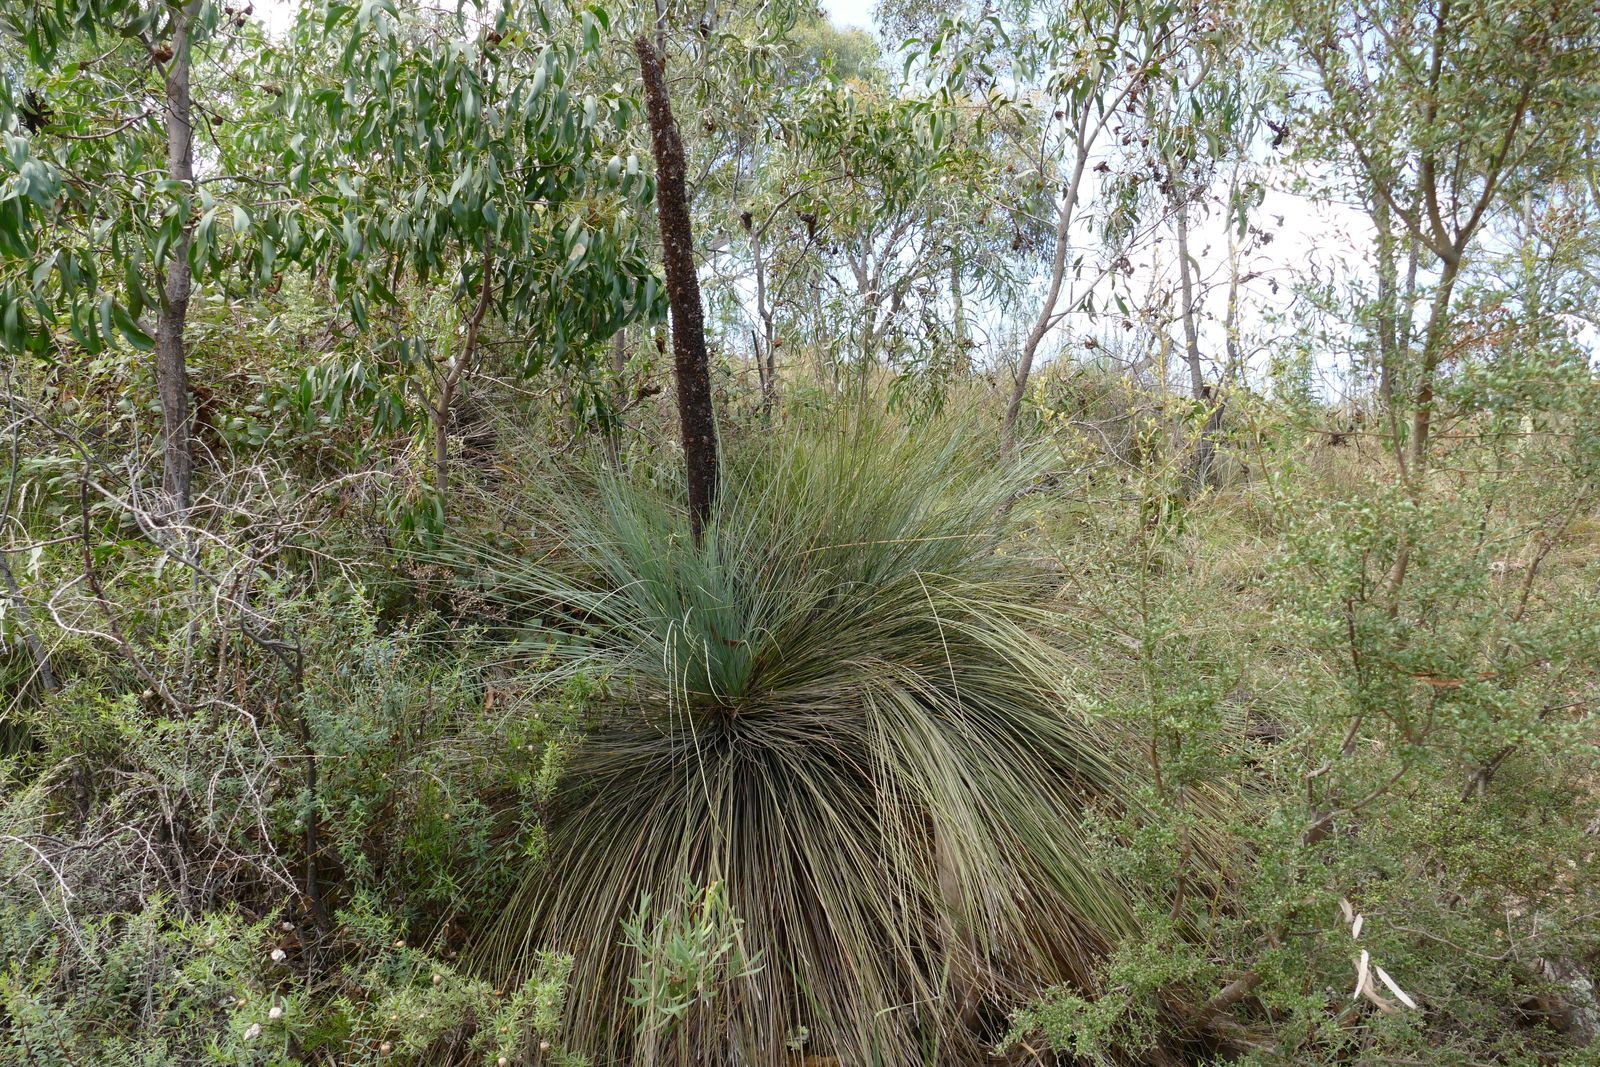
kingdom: Plantae
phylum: Tracheophyta
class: Liliopsida
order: Asparagales
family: Asphodelaceae
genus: Xanthorrhoea
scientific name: Xanthorrhoea glauca
